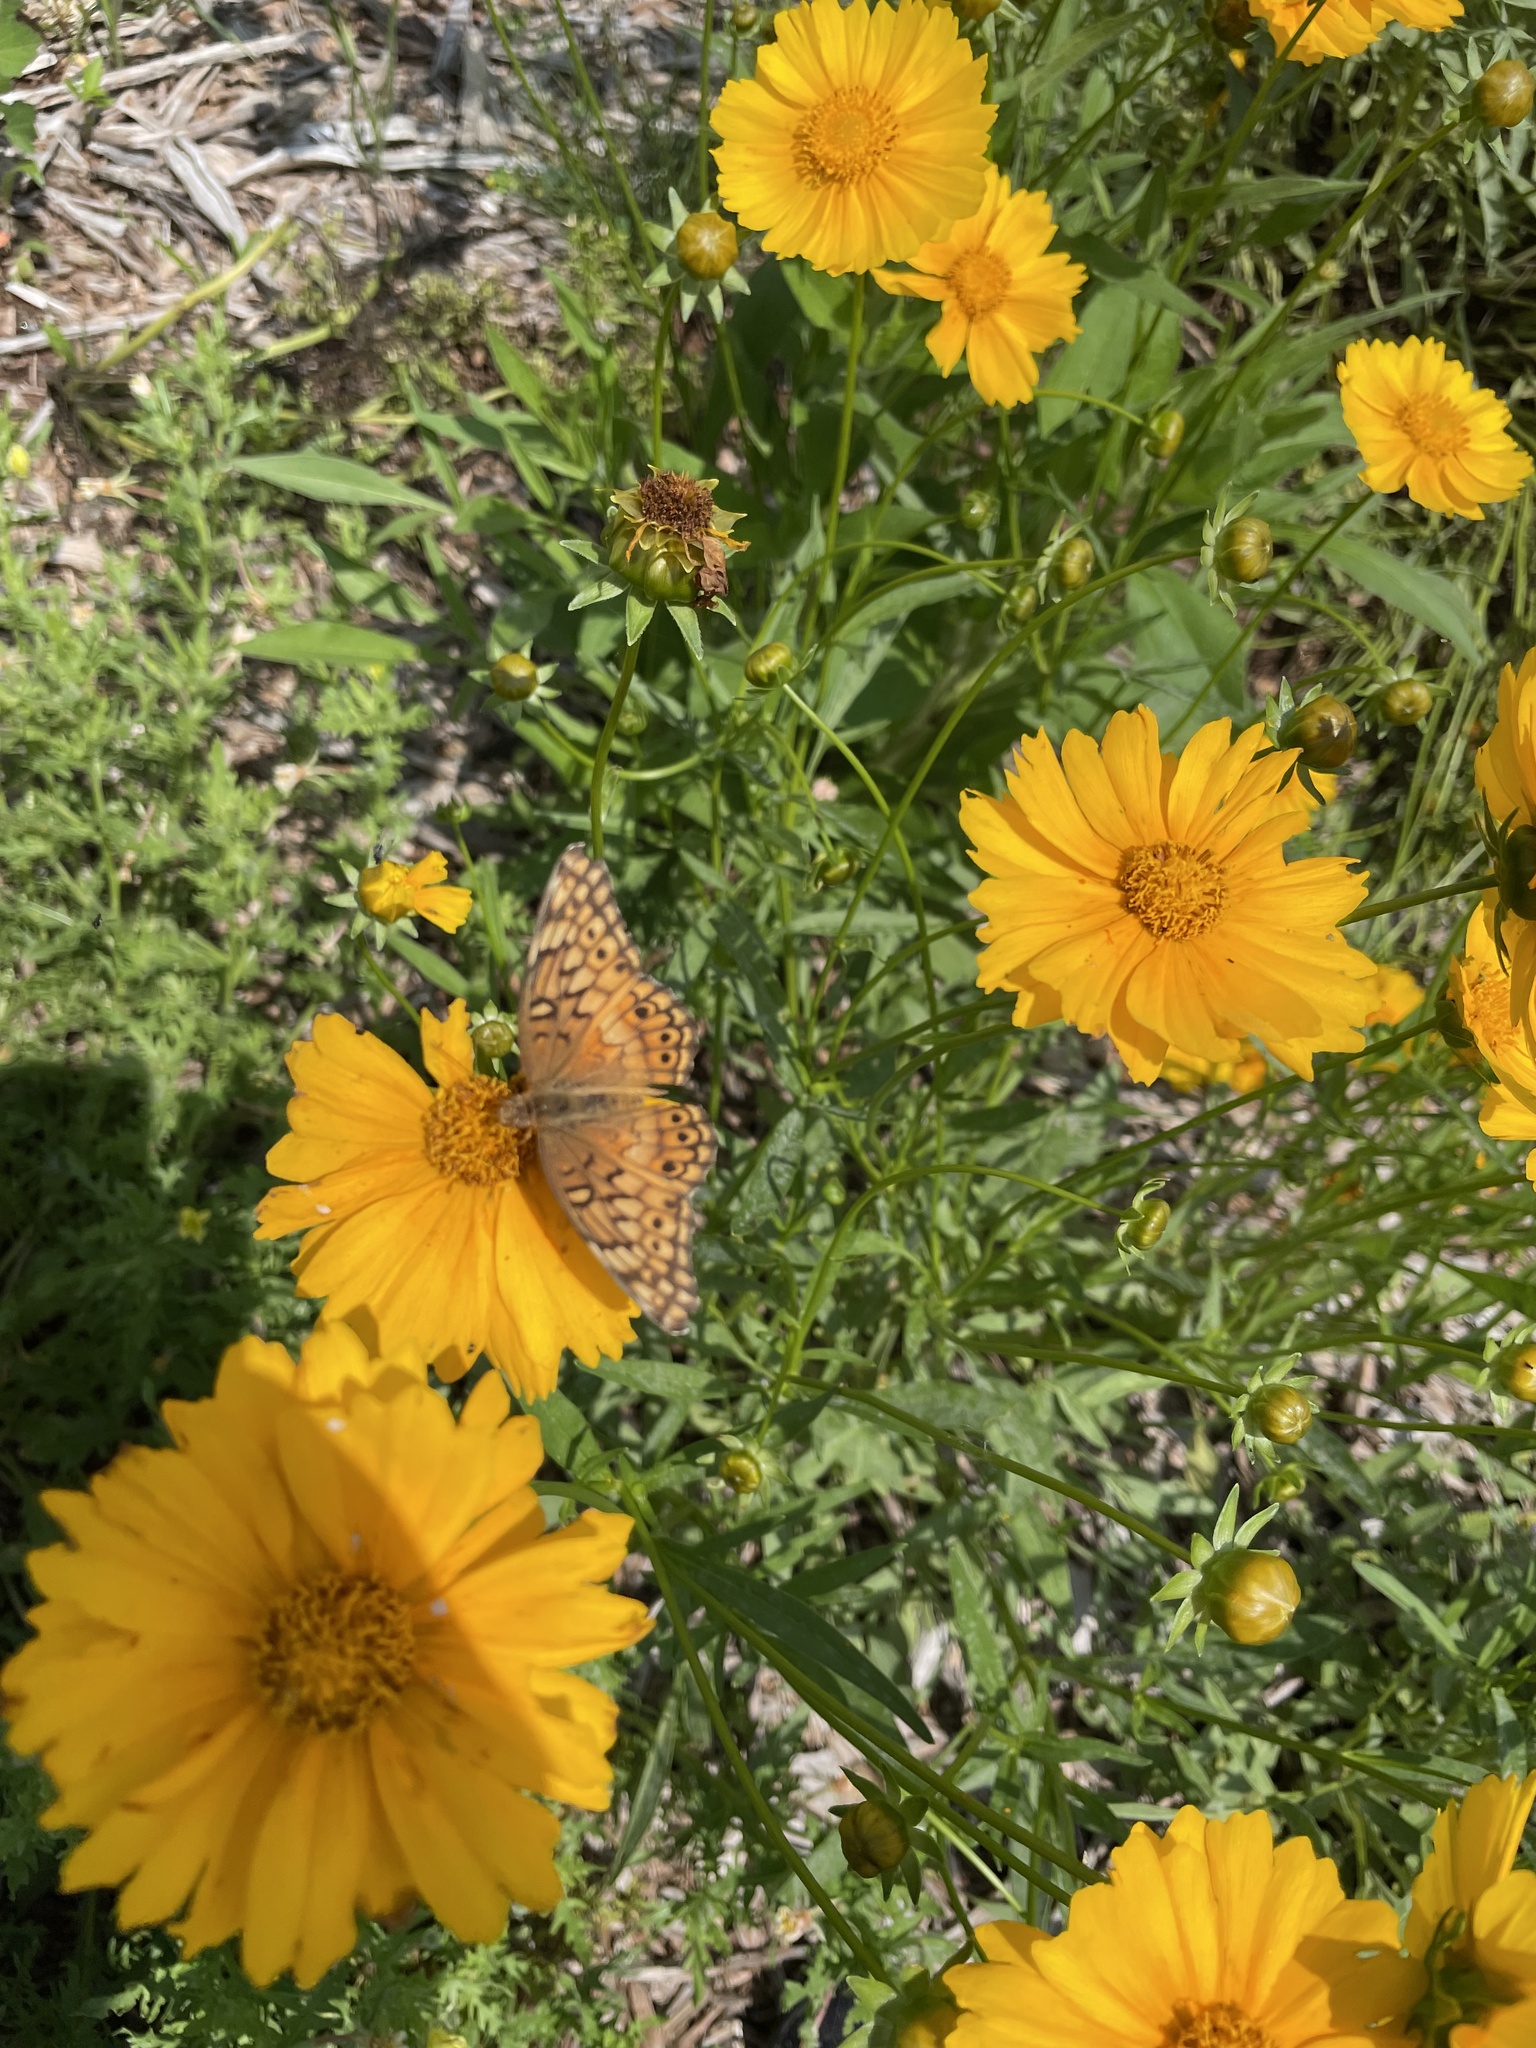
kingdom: Animalia
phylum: Arthropoda
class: Insecta
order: Lepidoptera
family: Nymphalidae
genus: Euptoieta
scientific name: Euptoieta claudia
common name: Variegated fritillary
